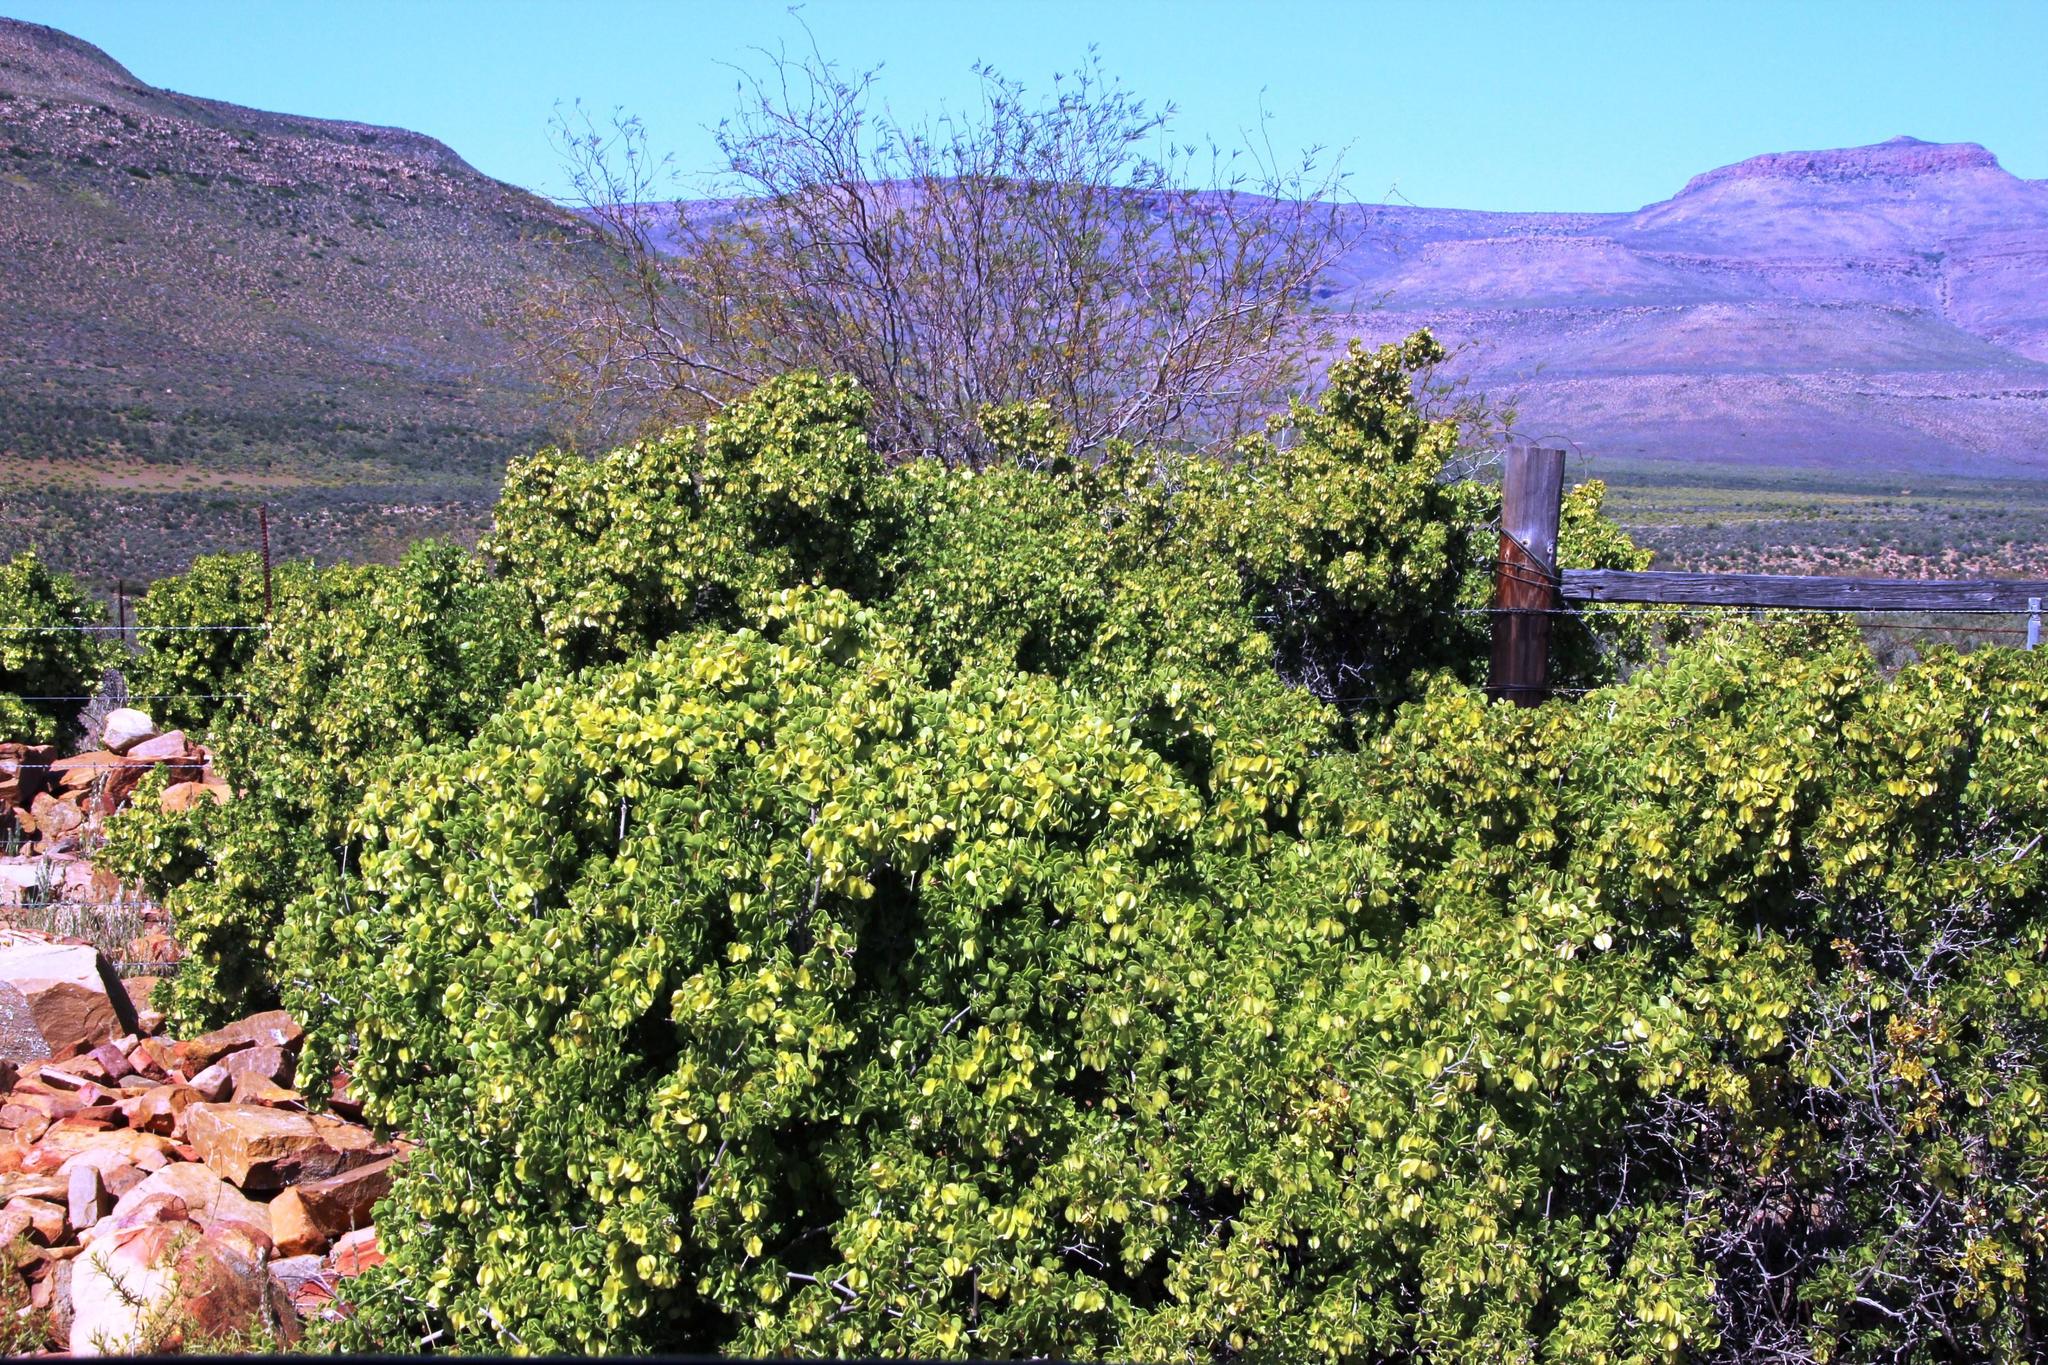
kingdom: Plantae
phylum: Tracheophyta
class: Magnoliopsida
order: Zygophyllales
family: Zygophyllaceae
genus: Roepera
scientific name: Roepera morgsana
